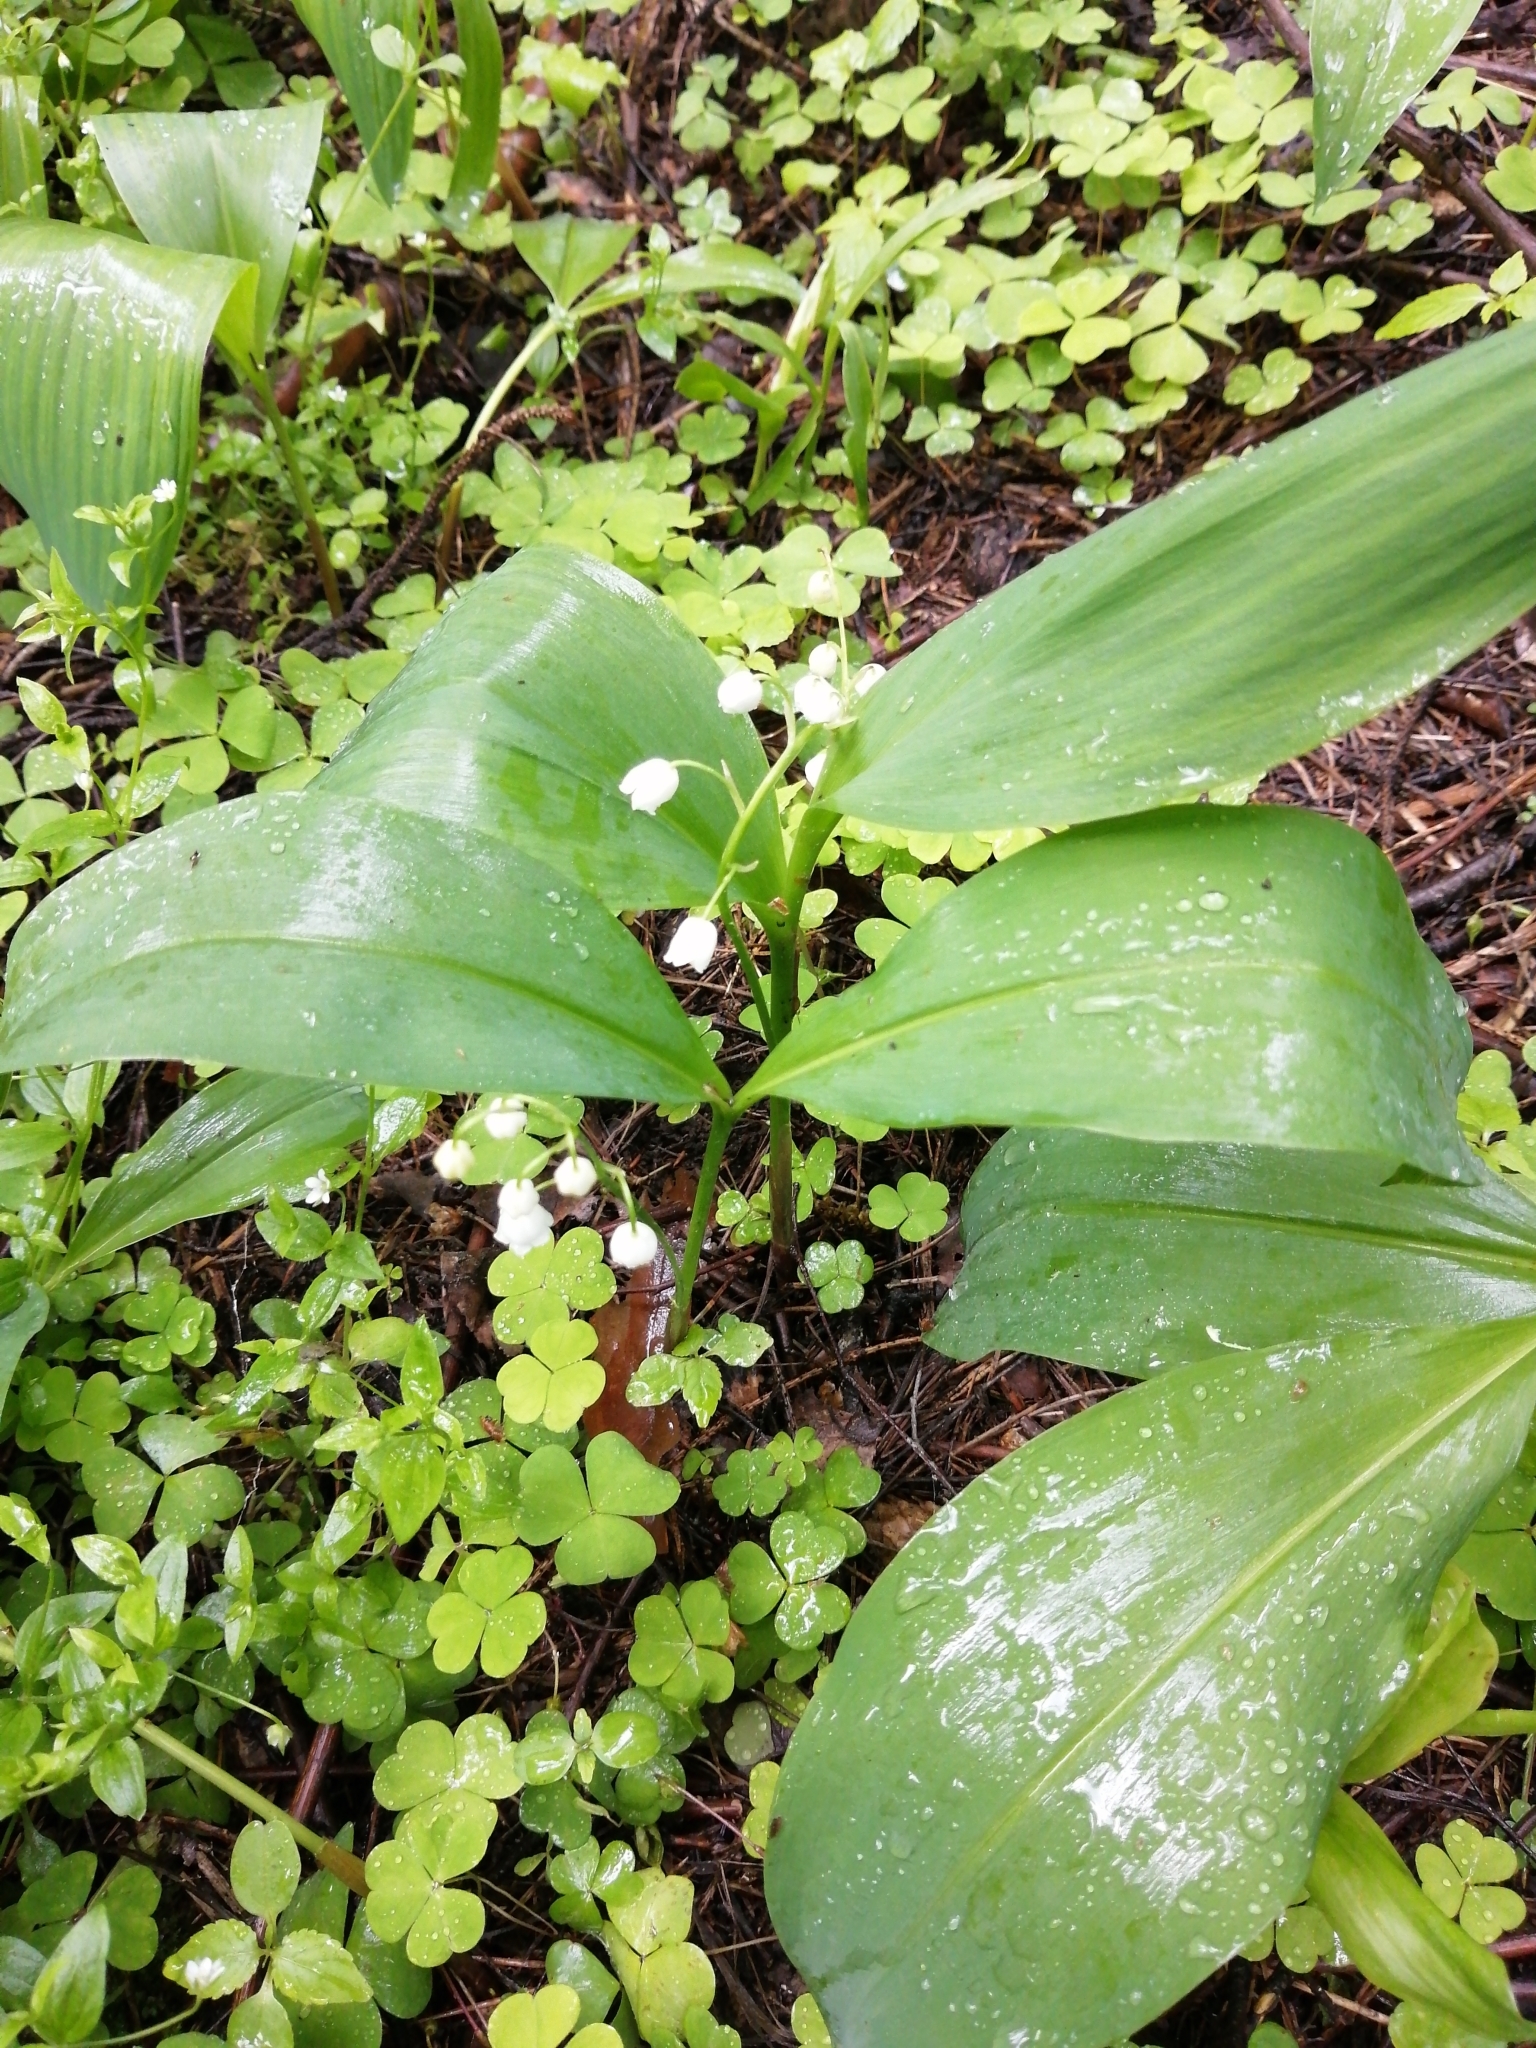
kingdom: Plantae
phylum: Tracheophyta
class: Liliopsida
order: Asparagales
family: Asparagaceae
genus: Convallaria
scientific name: Convallaria majalis
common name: Lily-of-the-valley
